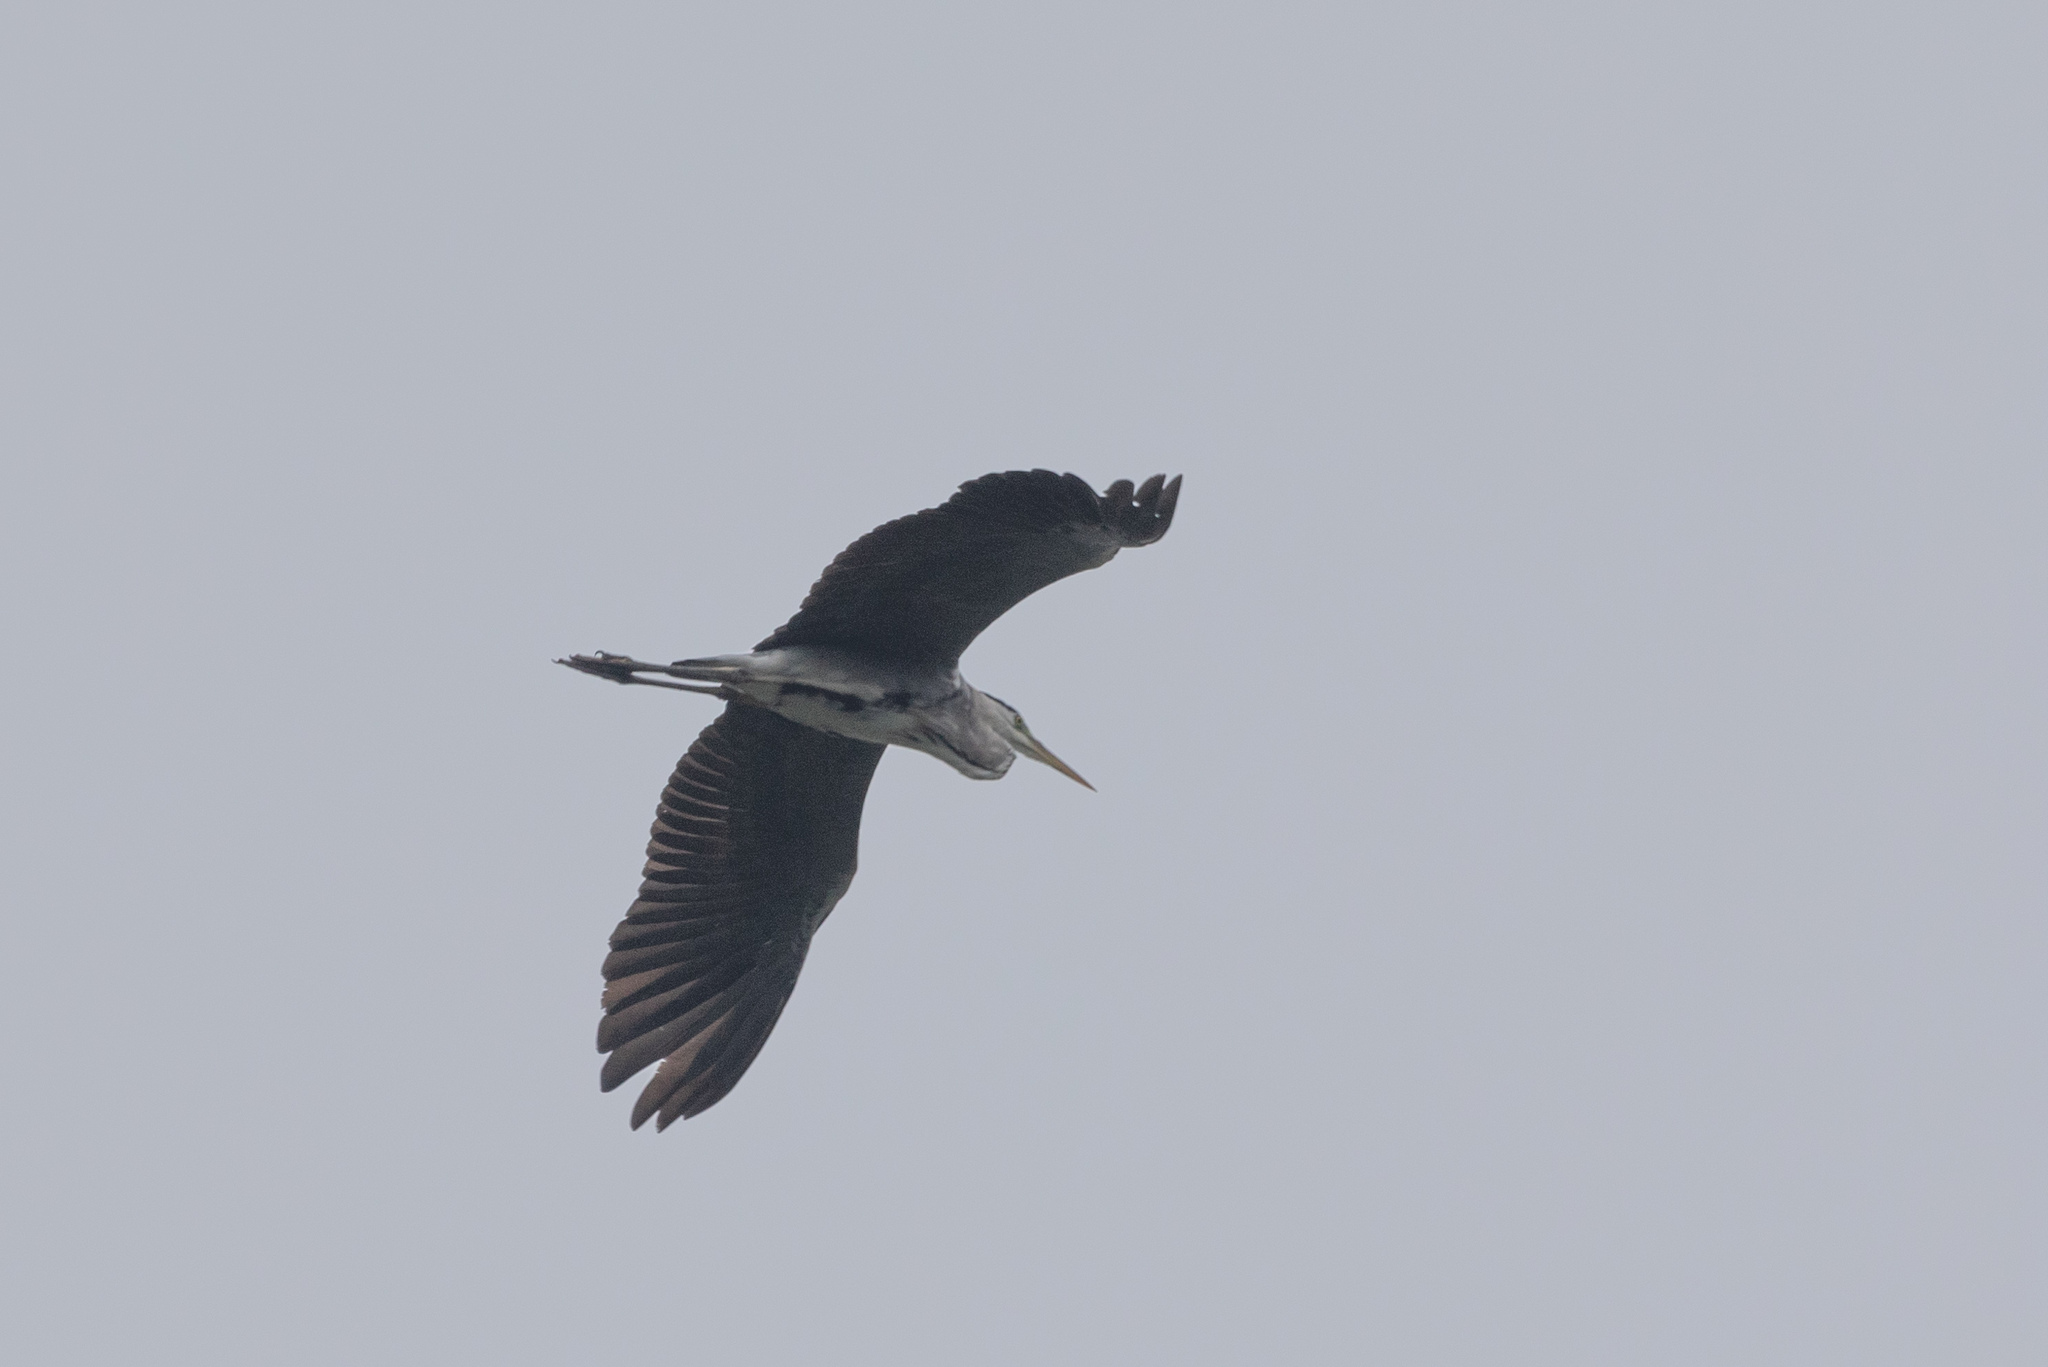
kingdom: Animalia
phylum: Chordata
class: Aves
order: Pelecaniformes
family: Ardeidae
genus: Ardea
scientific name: Ardea cinerea
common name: Grey heron
